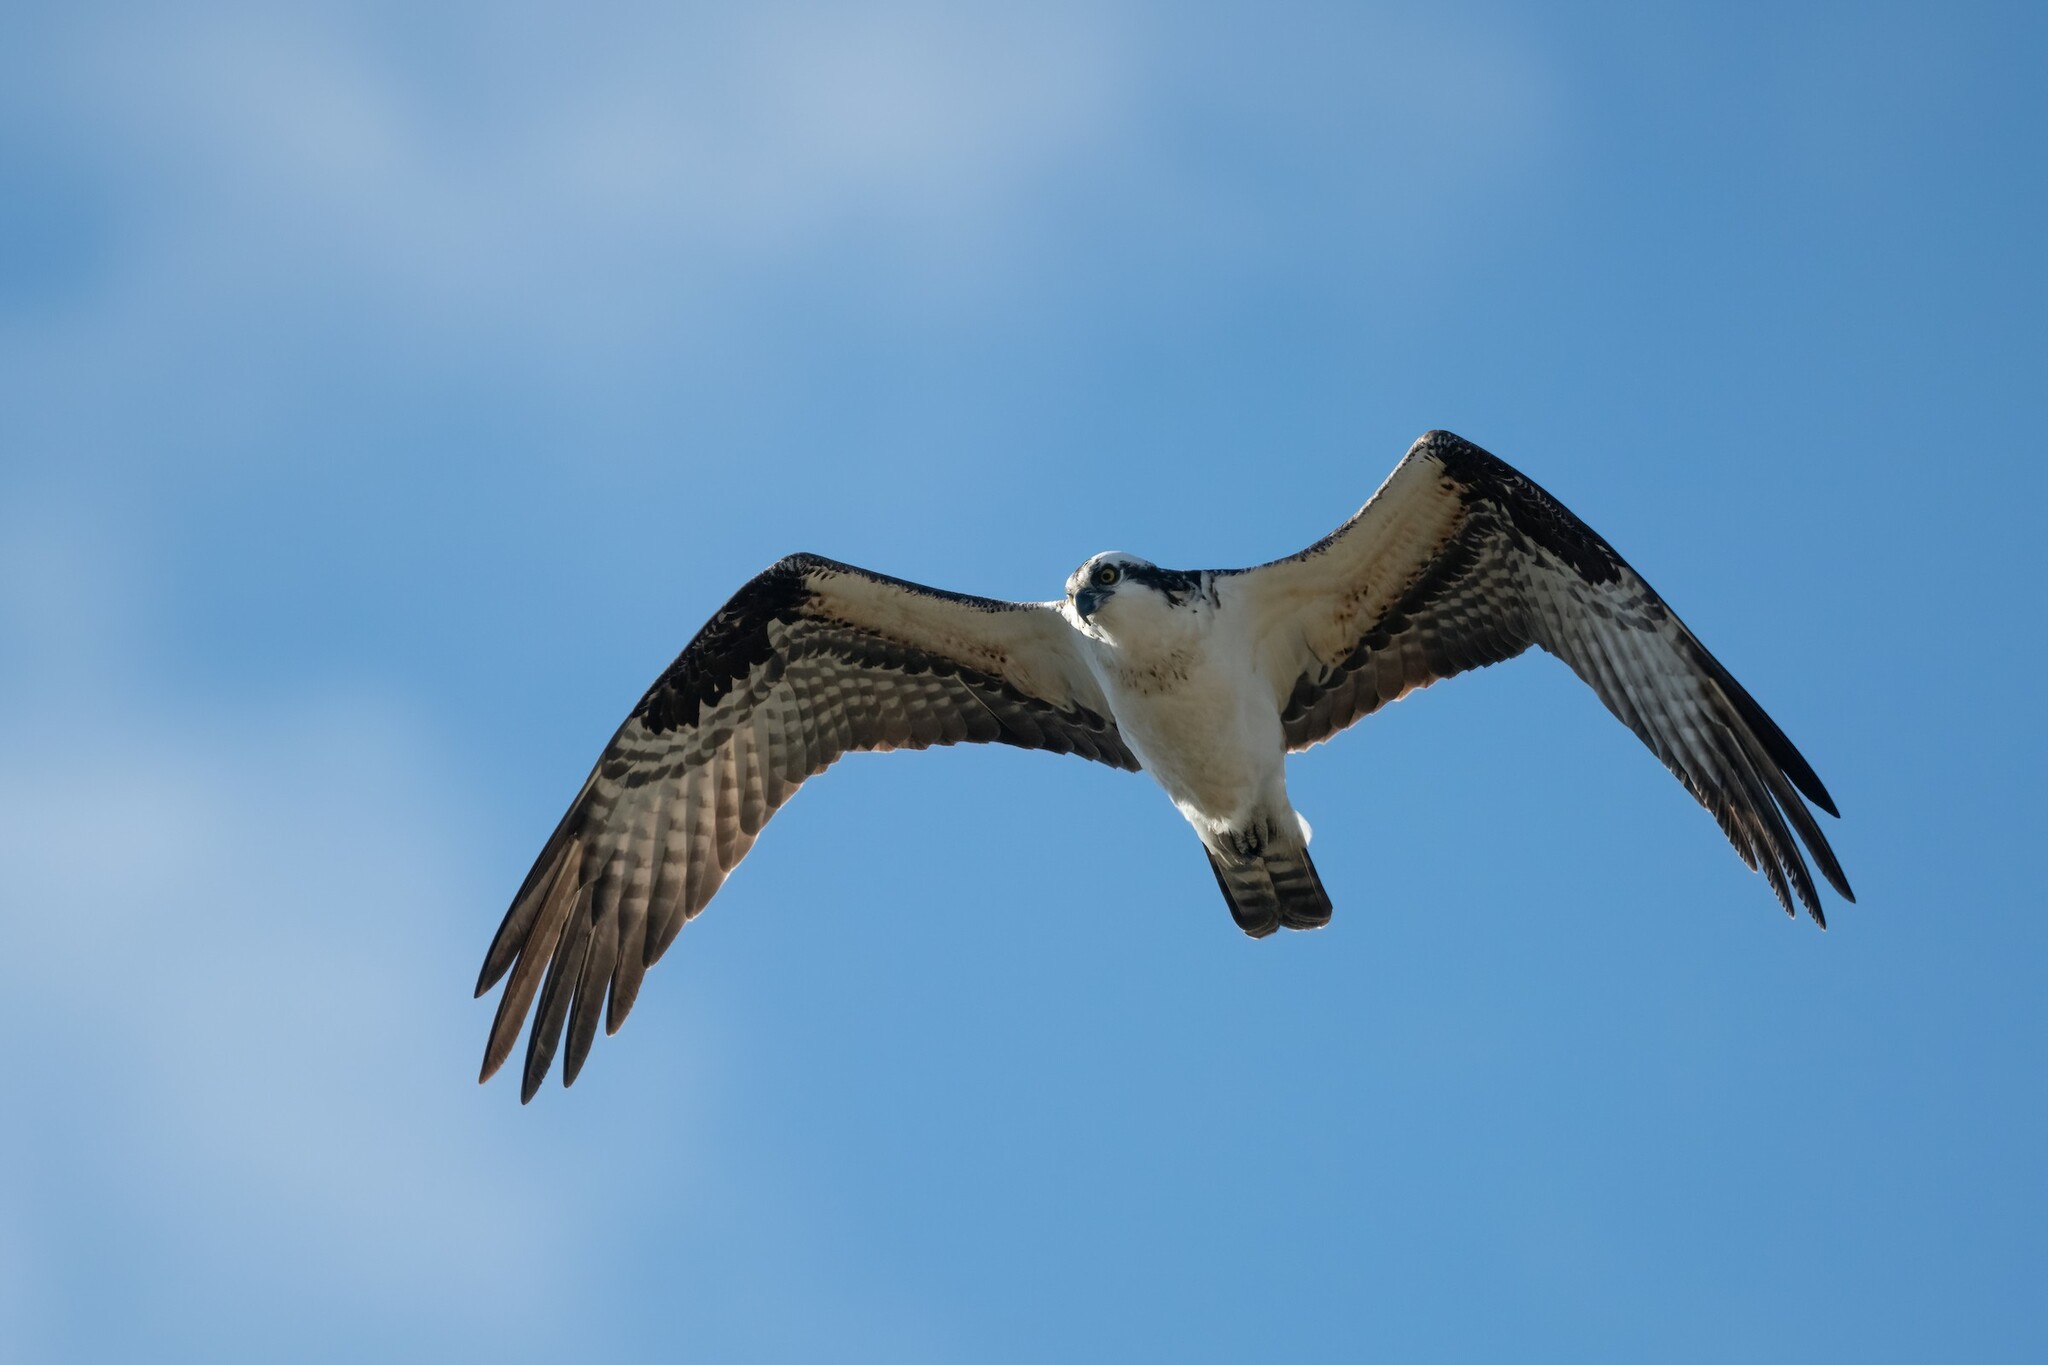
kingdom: Animalia
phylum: Chordata
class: Aves
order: Accipitriformes
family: Pandionidae
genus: Pandion
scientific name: Pandion haliaetus
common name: Osprey
